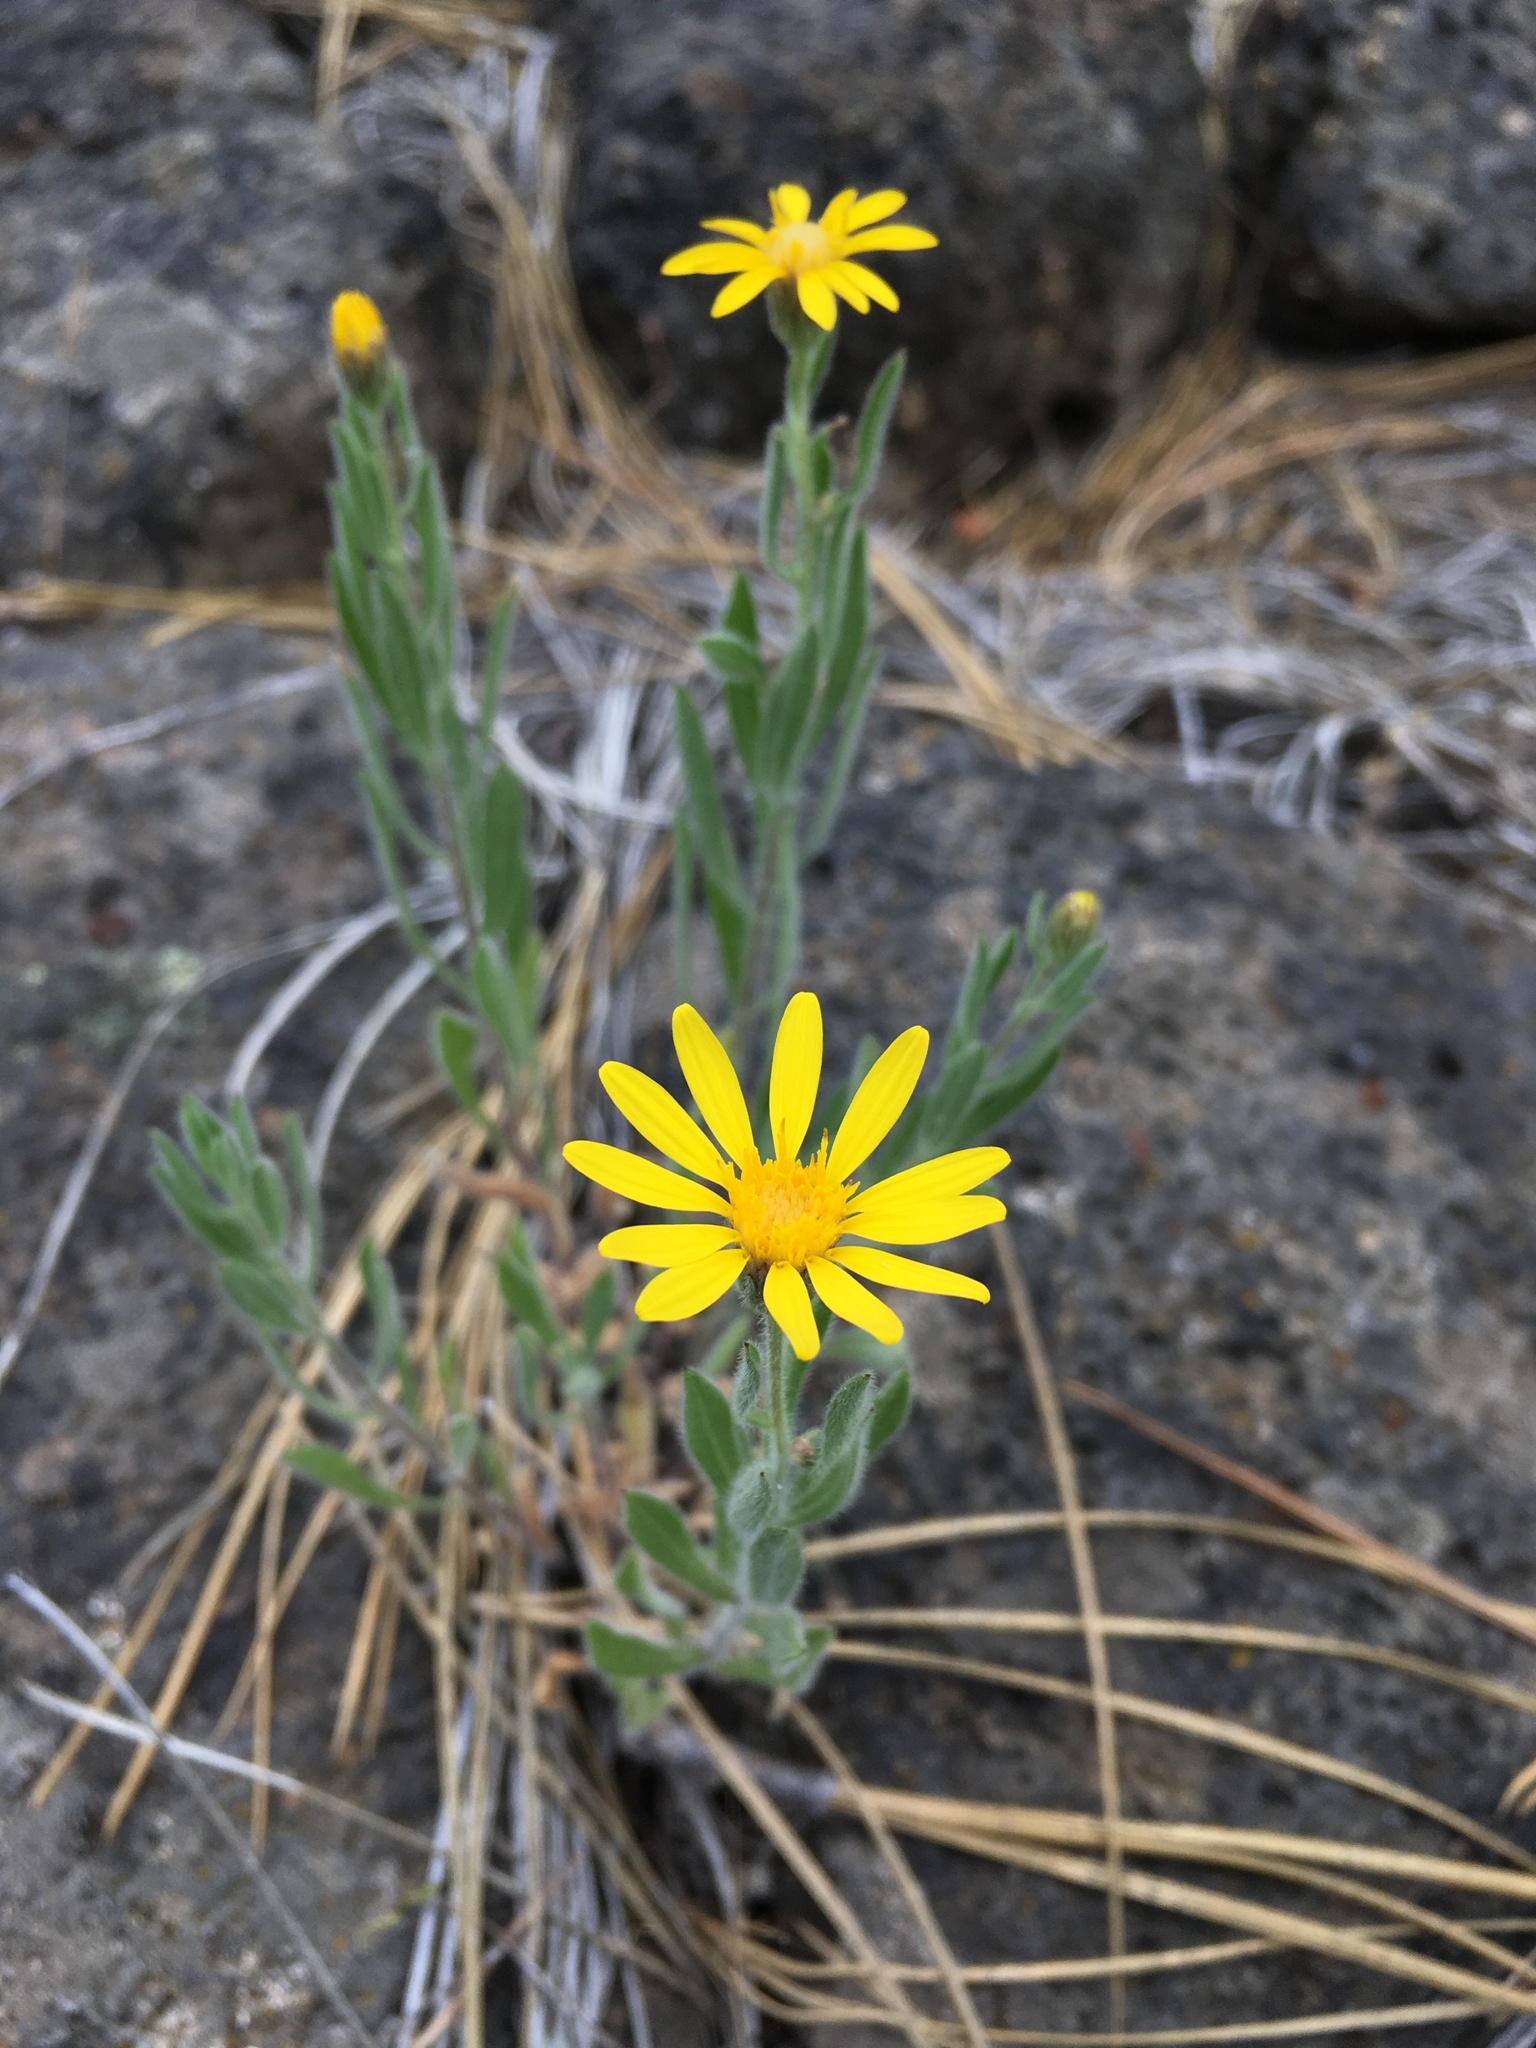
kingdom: Plantae
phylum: Tracheophyta
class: Magnoliopsida
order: Asterales
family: Asteraceae
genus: Heterotheca
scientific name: Heterotheca orovillosa
